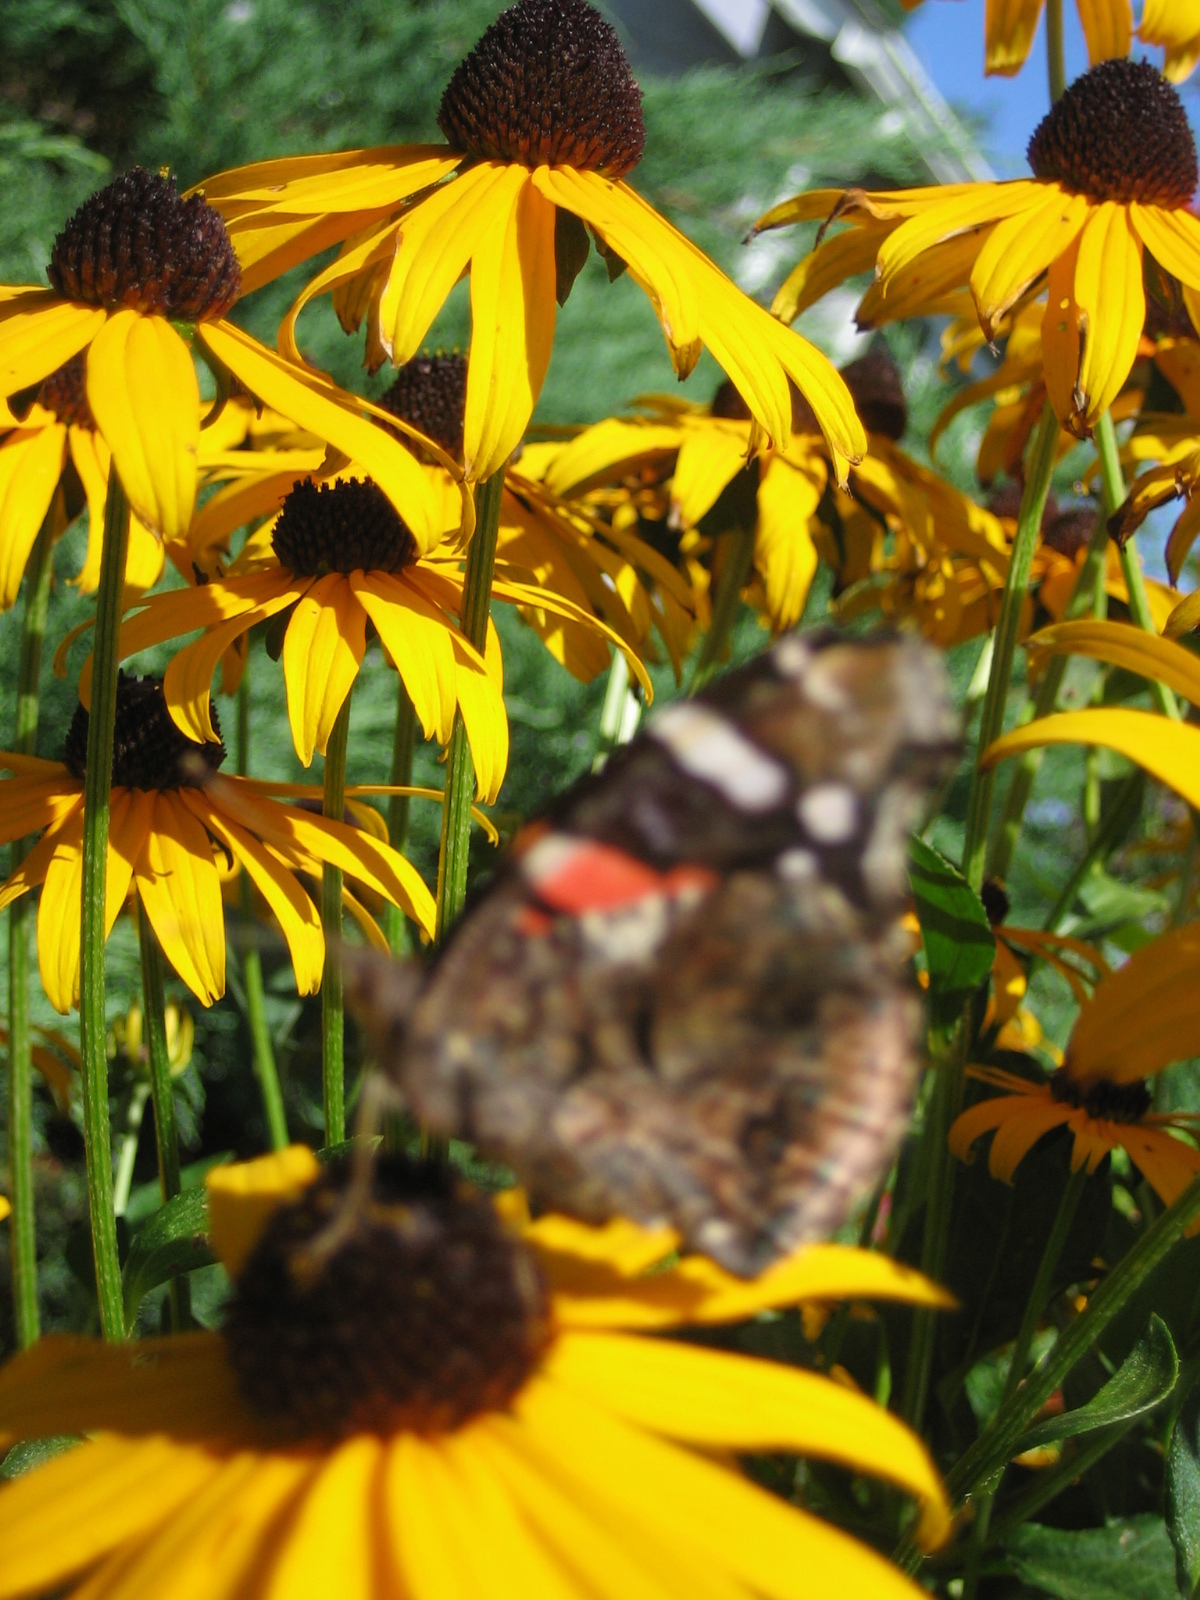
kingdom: Animalia
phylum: Arthropoda
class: Insecta
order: Lepidoptera
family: Nymphalidae
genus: Vanessa
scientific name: Vanessa atalanta
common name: Red admiral
